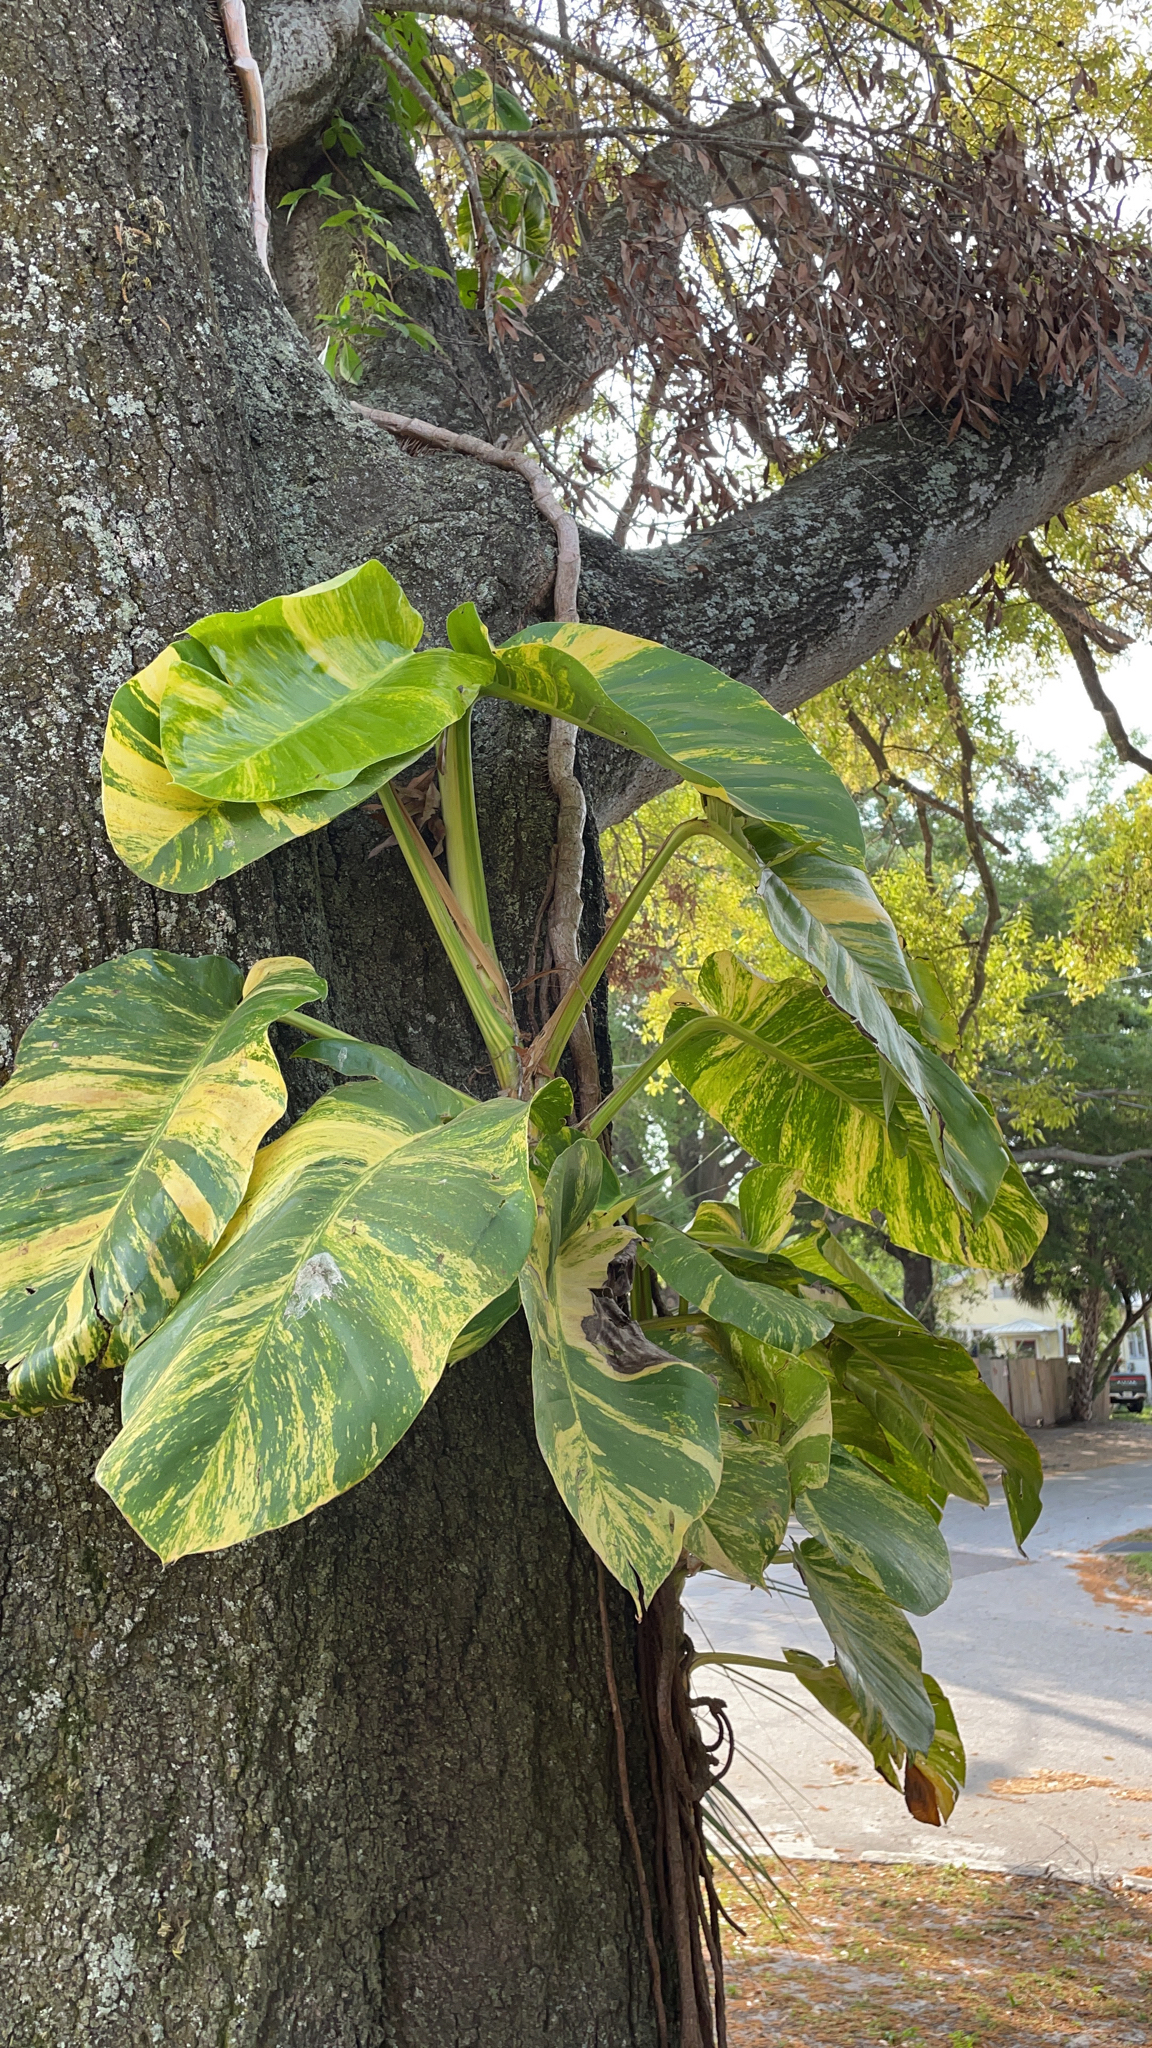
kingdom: Plantae
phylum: Tracheophyta
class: Liliopsida
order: Alismatales
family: Araceae
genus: Epipremnum
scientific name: Epipremnum aureum
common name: Golden hunter's-robe
